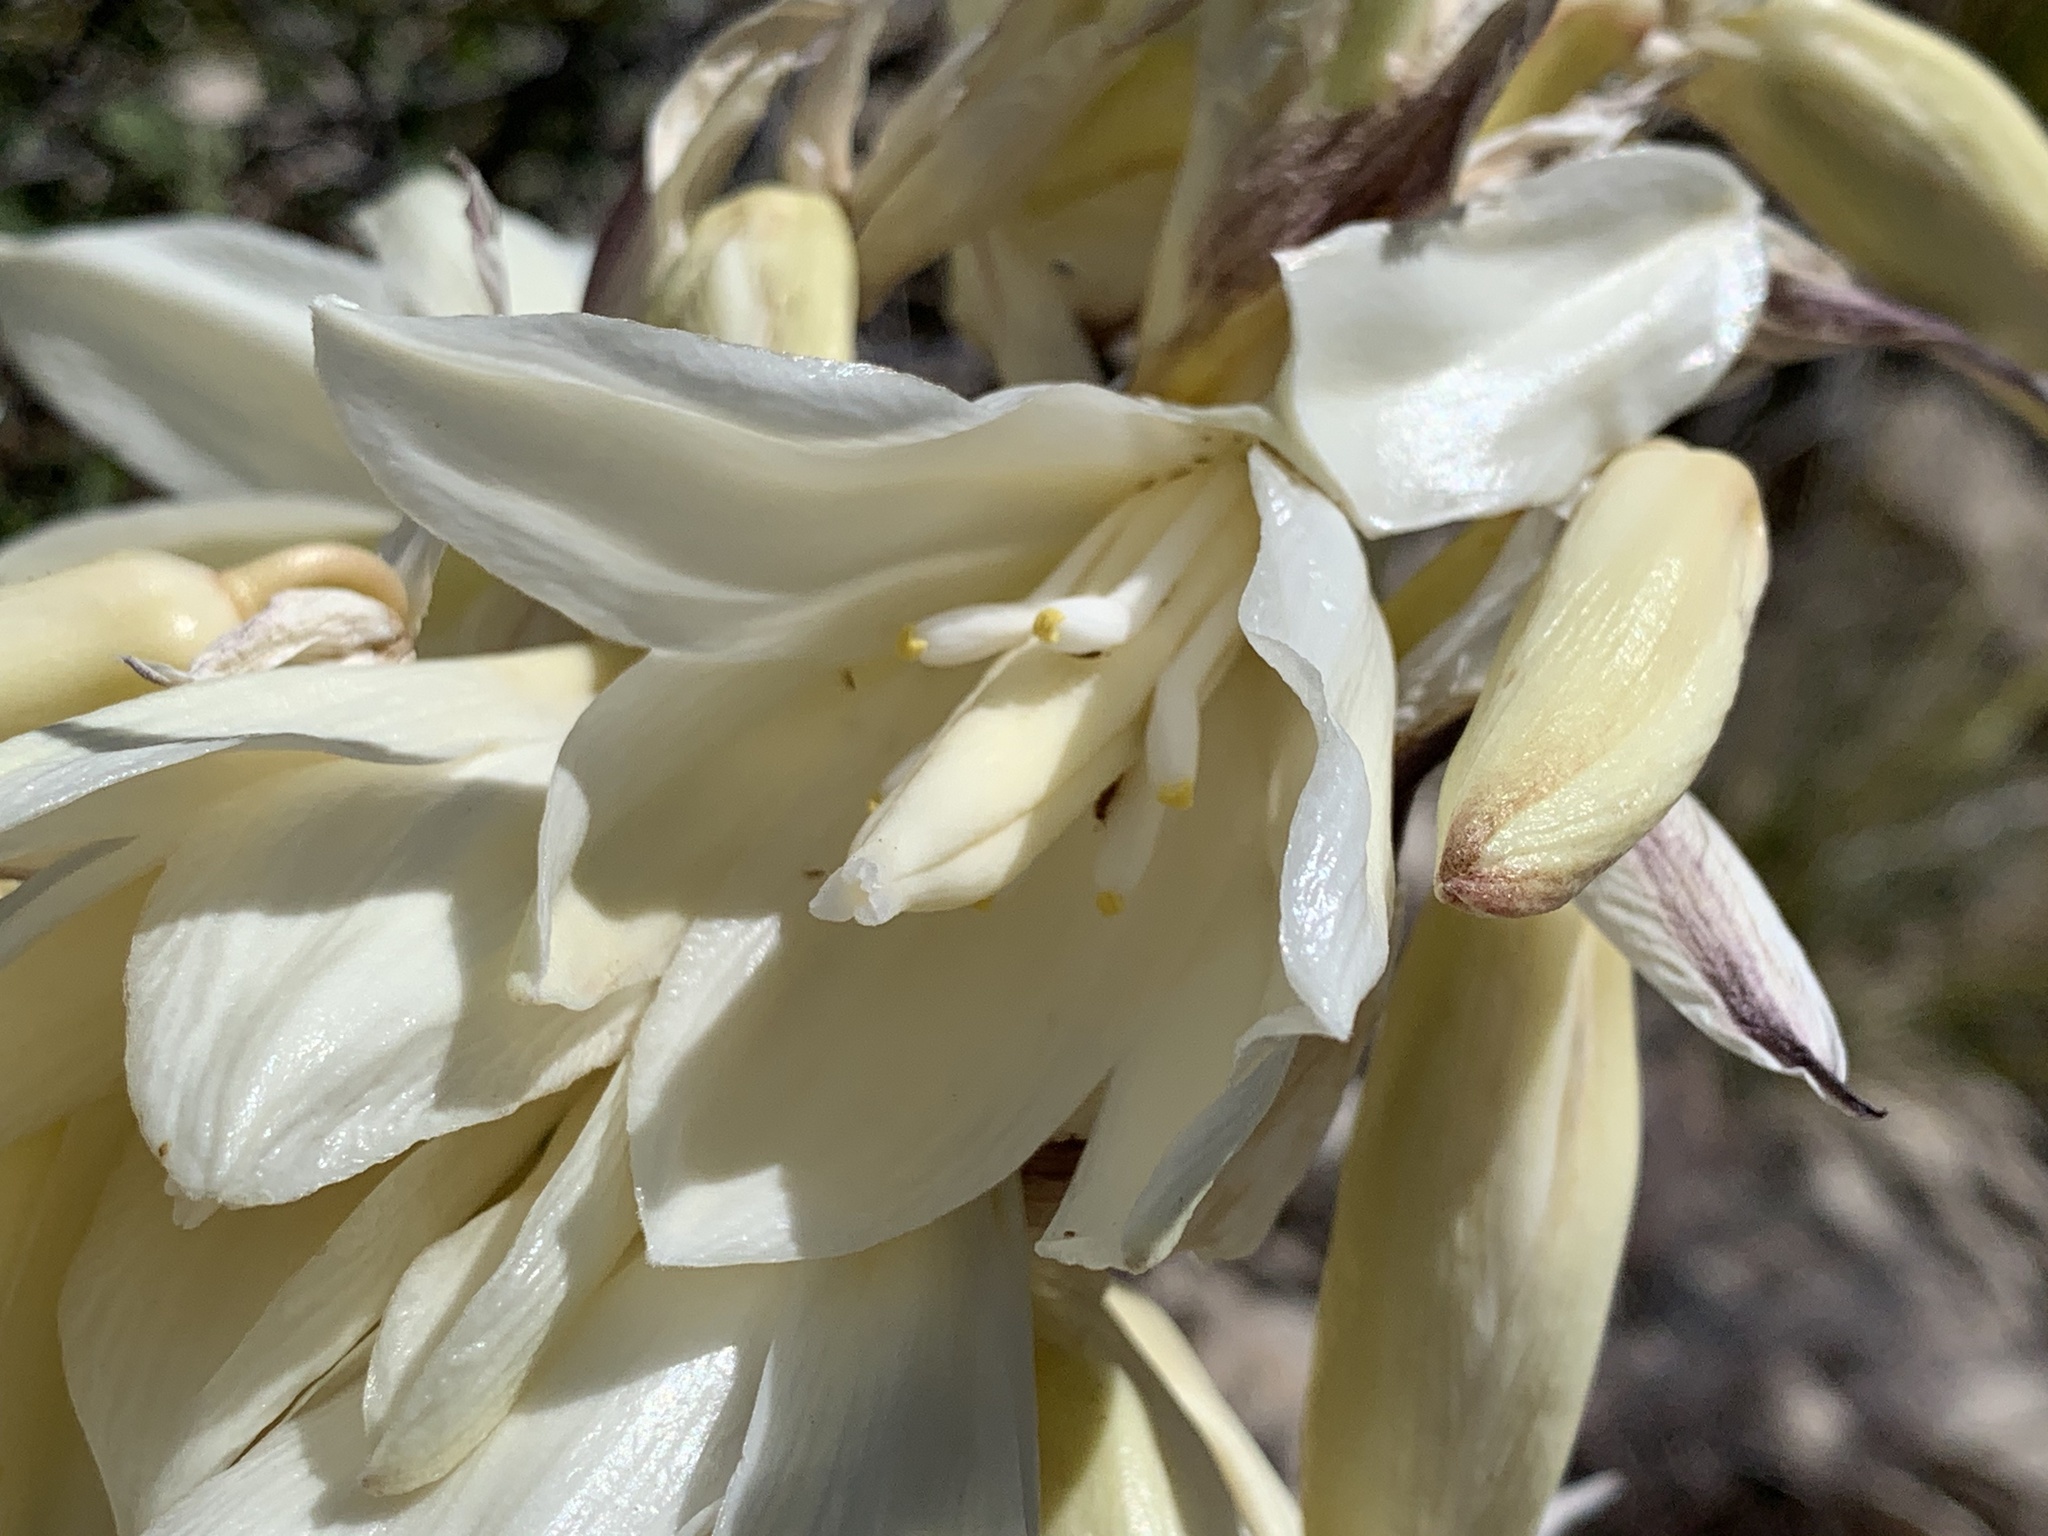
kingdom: Plantae
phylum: Tracheophyta
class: Liliopsida
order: Asparagales
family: Asparagaceae
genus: Yucca
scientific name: Yucca baccata
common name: Banana yucca
